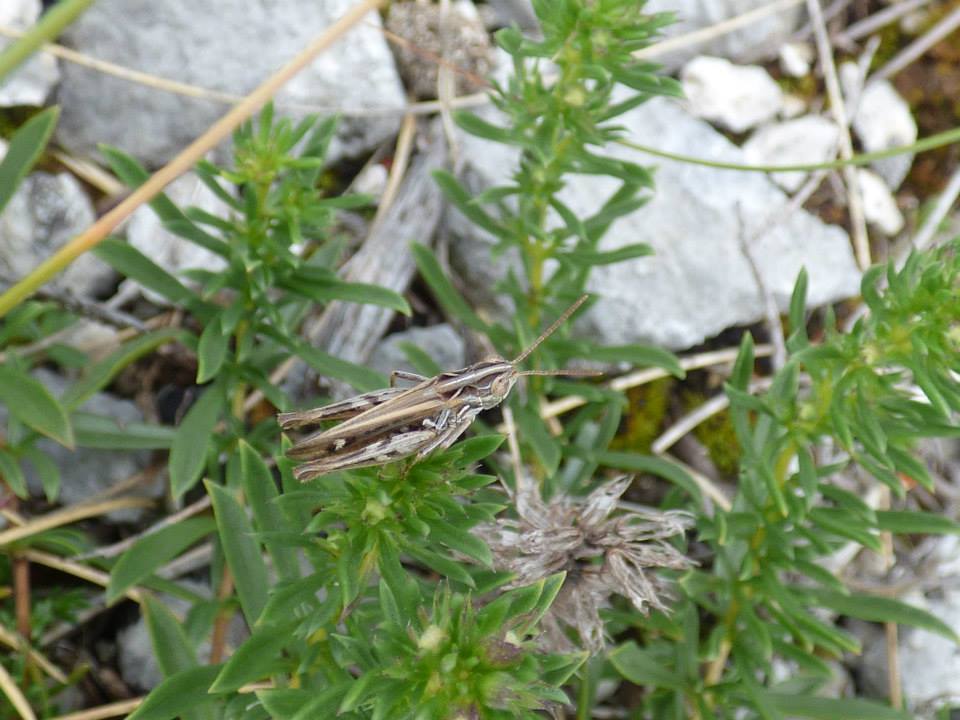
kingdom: Animalia
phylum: Arthropoda
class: Insecta
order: Orthoptera
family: Acrididae
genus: Omocestus
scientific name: Omocestus petraeus
